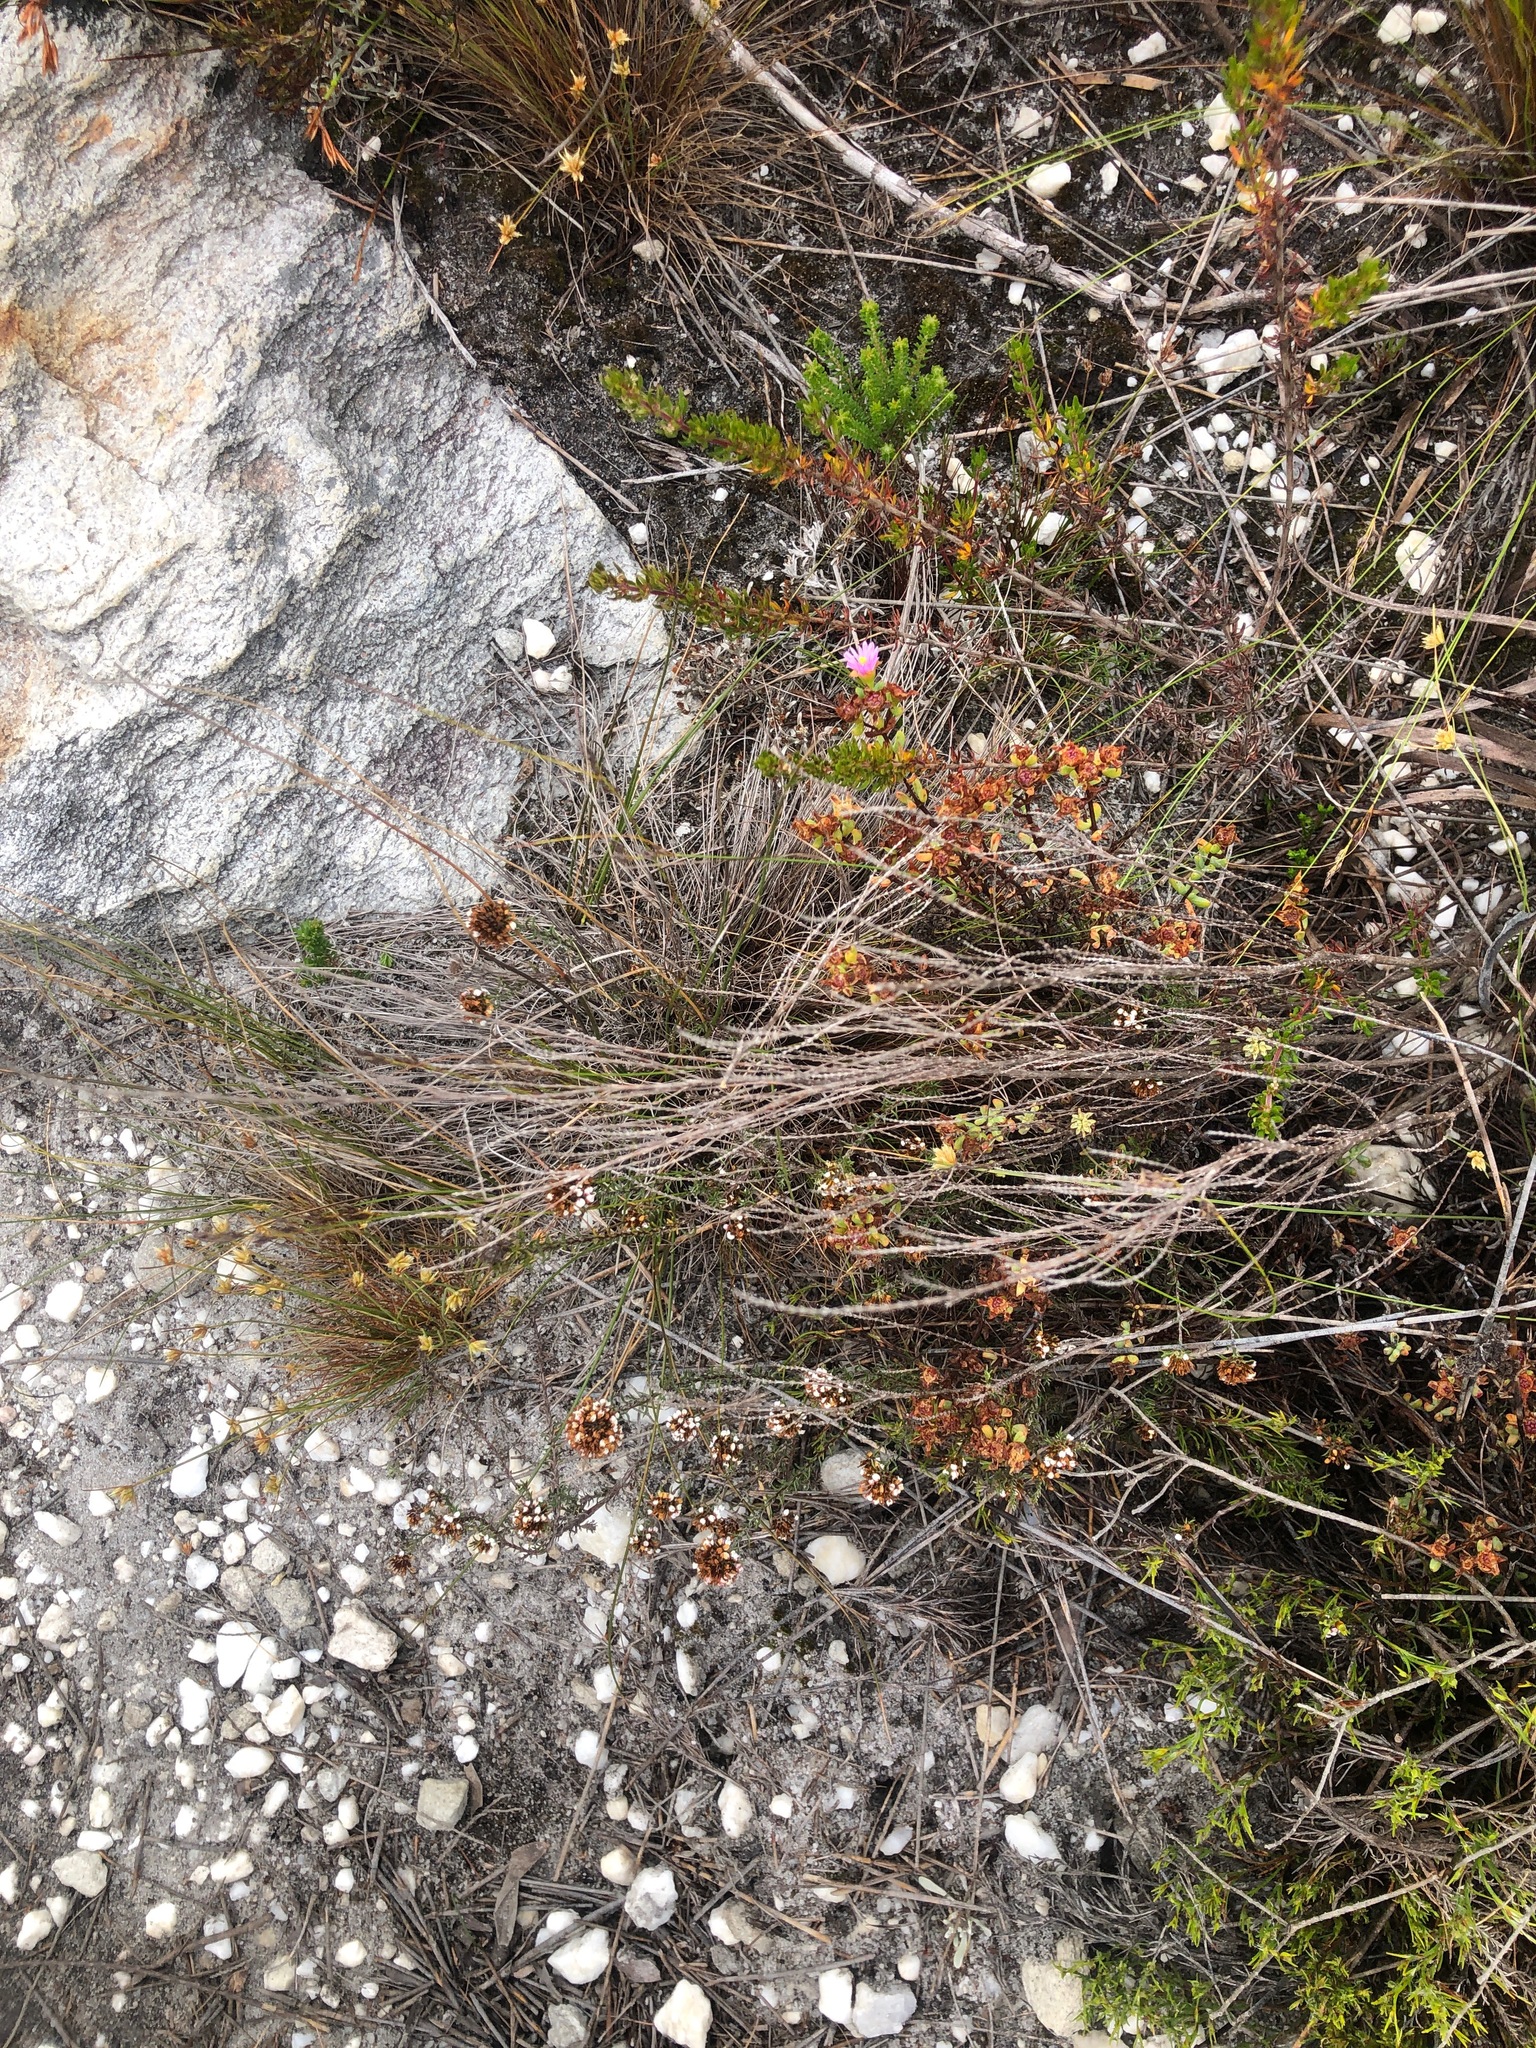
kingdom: Plantae
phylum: Tracheophyta
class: Magnoliopsida
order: Caryophyllales
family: Aizoaceae
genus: Lampranthus
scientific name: Lampranthus glomeratus
